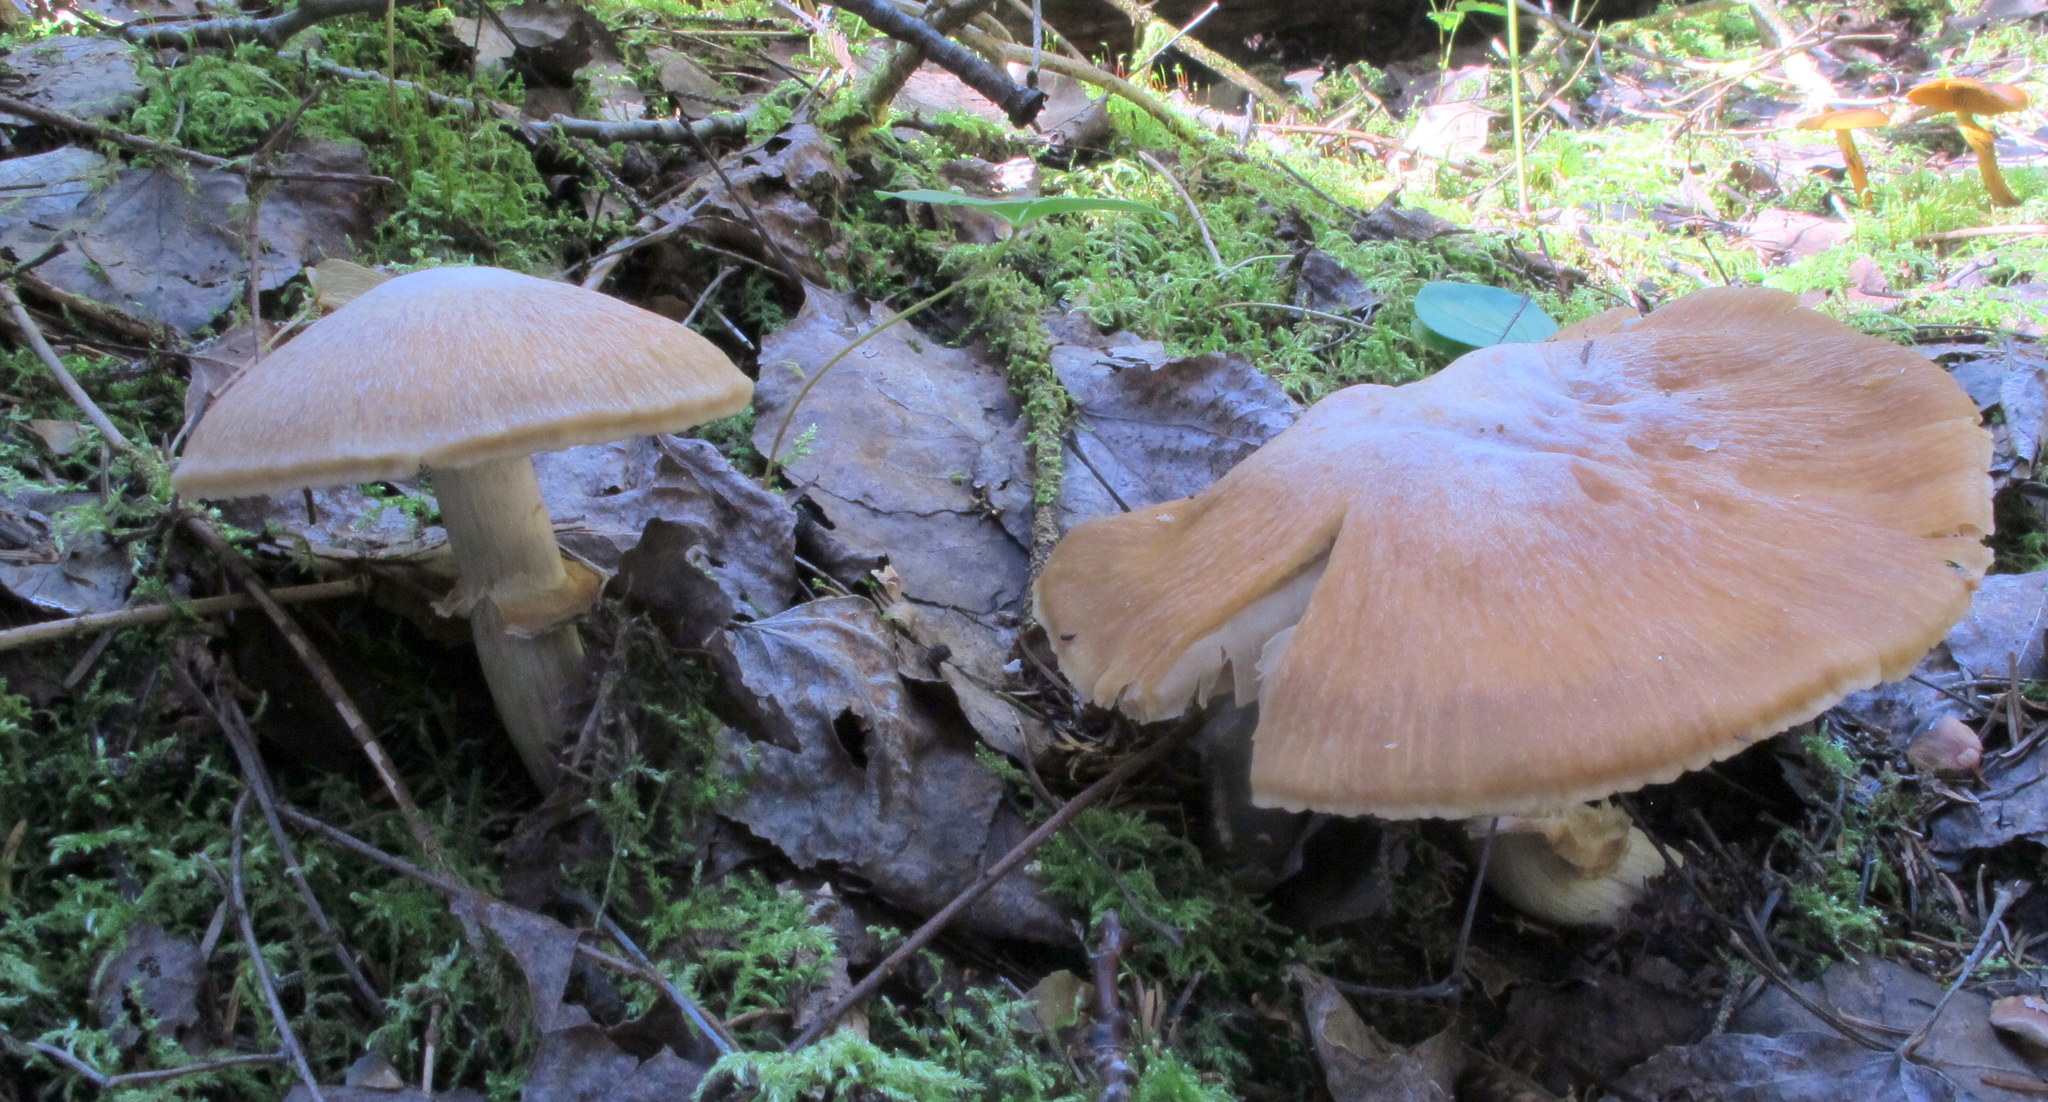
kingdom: Fungi
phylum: Basidiomycota
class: Agaricomycetes
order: Agaricales
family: Cortinariaceae
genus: Cortinarius
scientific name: Cortinarius caperatus
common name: The gypsy
